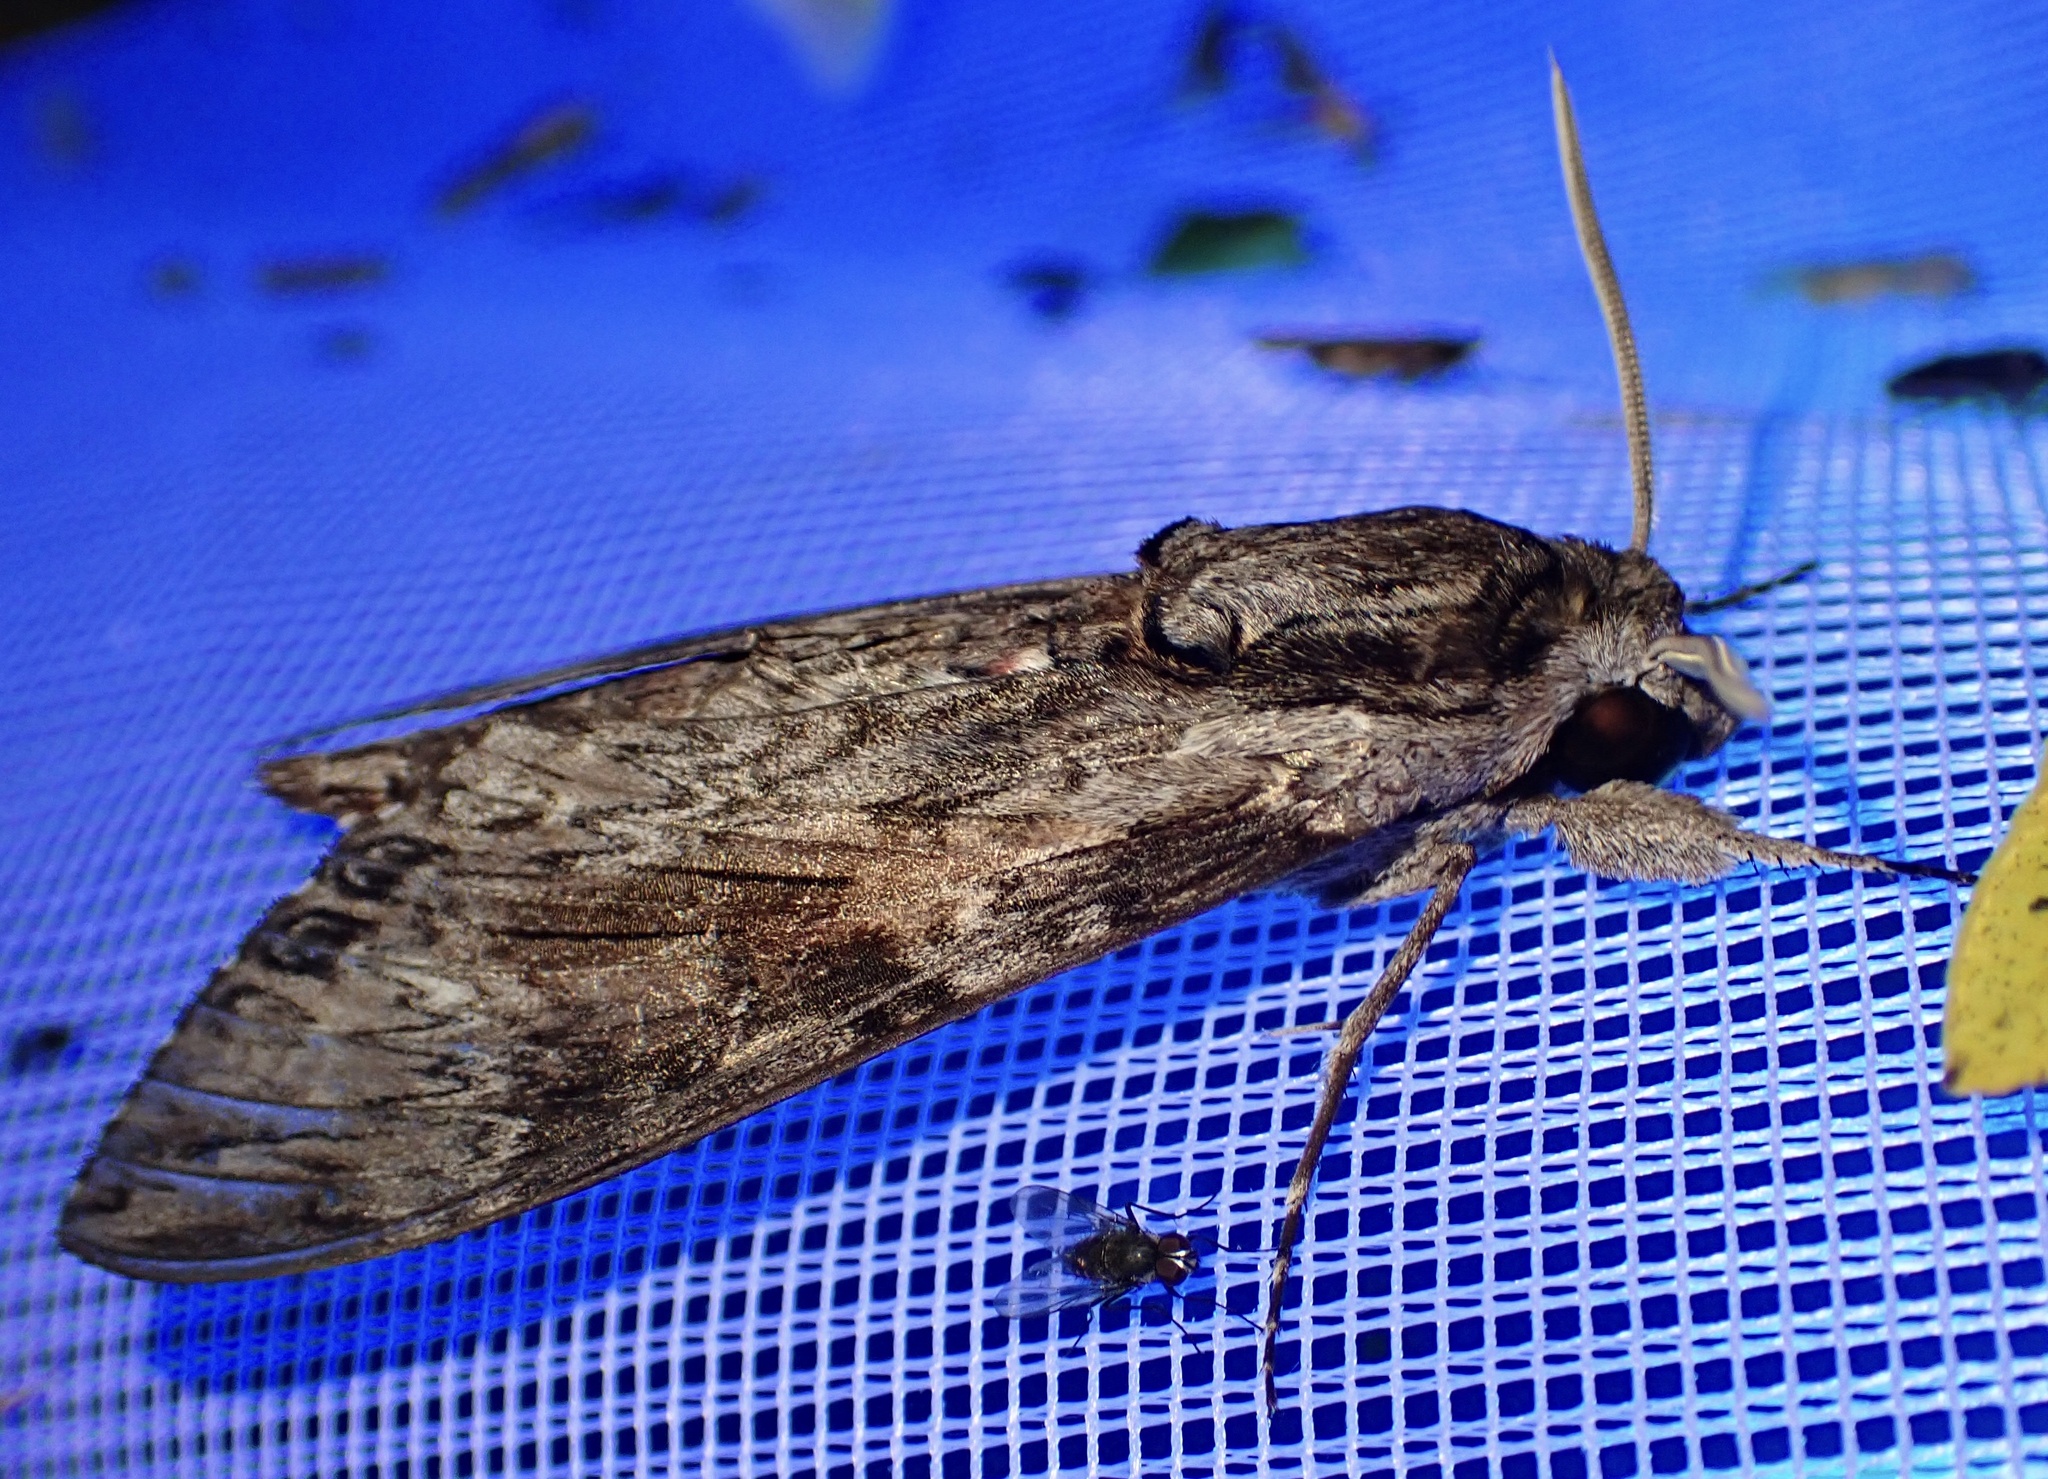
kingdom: Animalia
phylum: Arthropoda
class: Insecta
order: Lepidoptera
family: Sphingidae
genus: Agrius
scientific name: Agrius convolvuli
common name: Convolvulus hawkmoth
